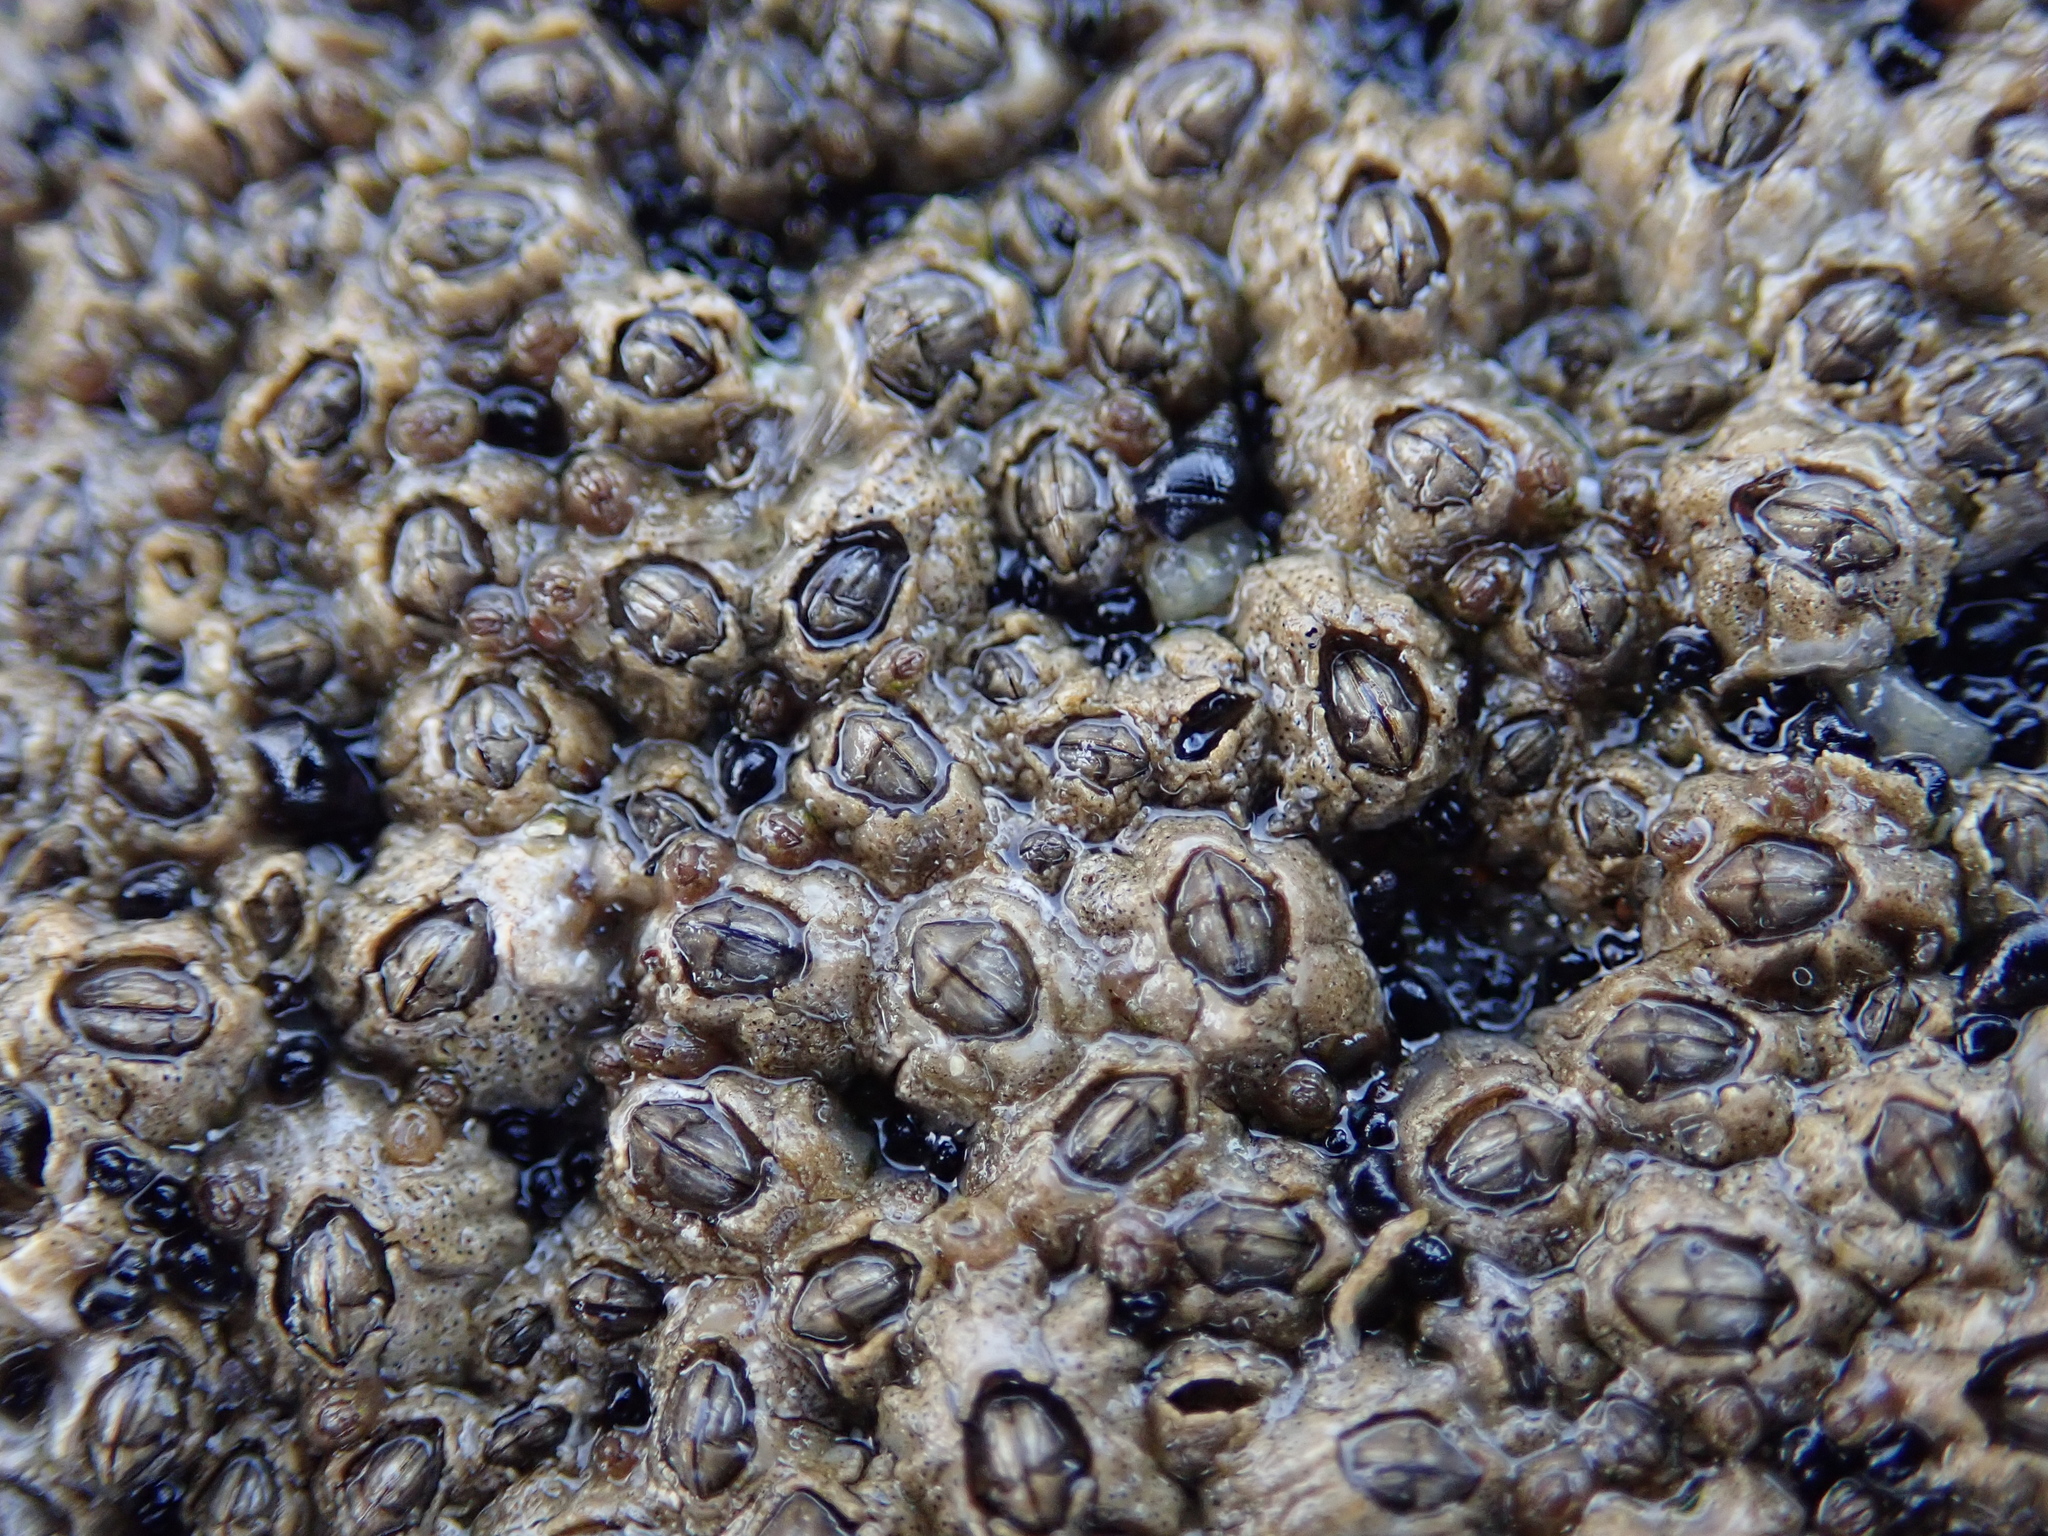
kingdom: Animalia
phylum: Arthropoda
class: Maxillopoda
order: Sessilia
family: Chthamalidae
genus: Chthamalus
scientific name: Chthamalus dalli
